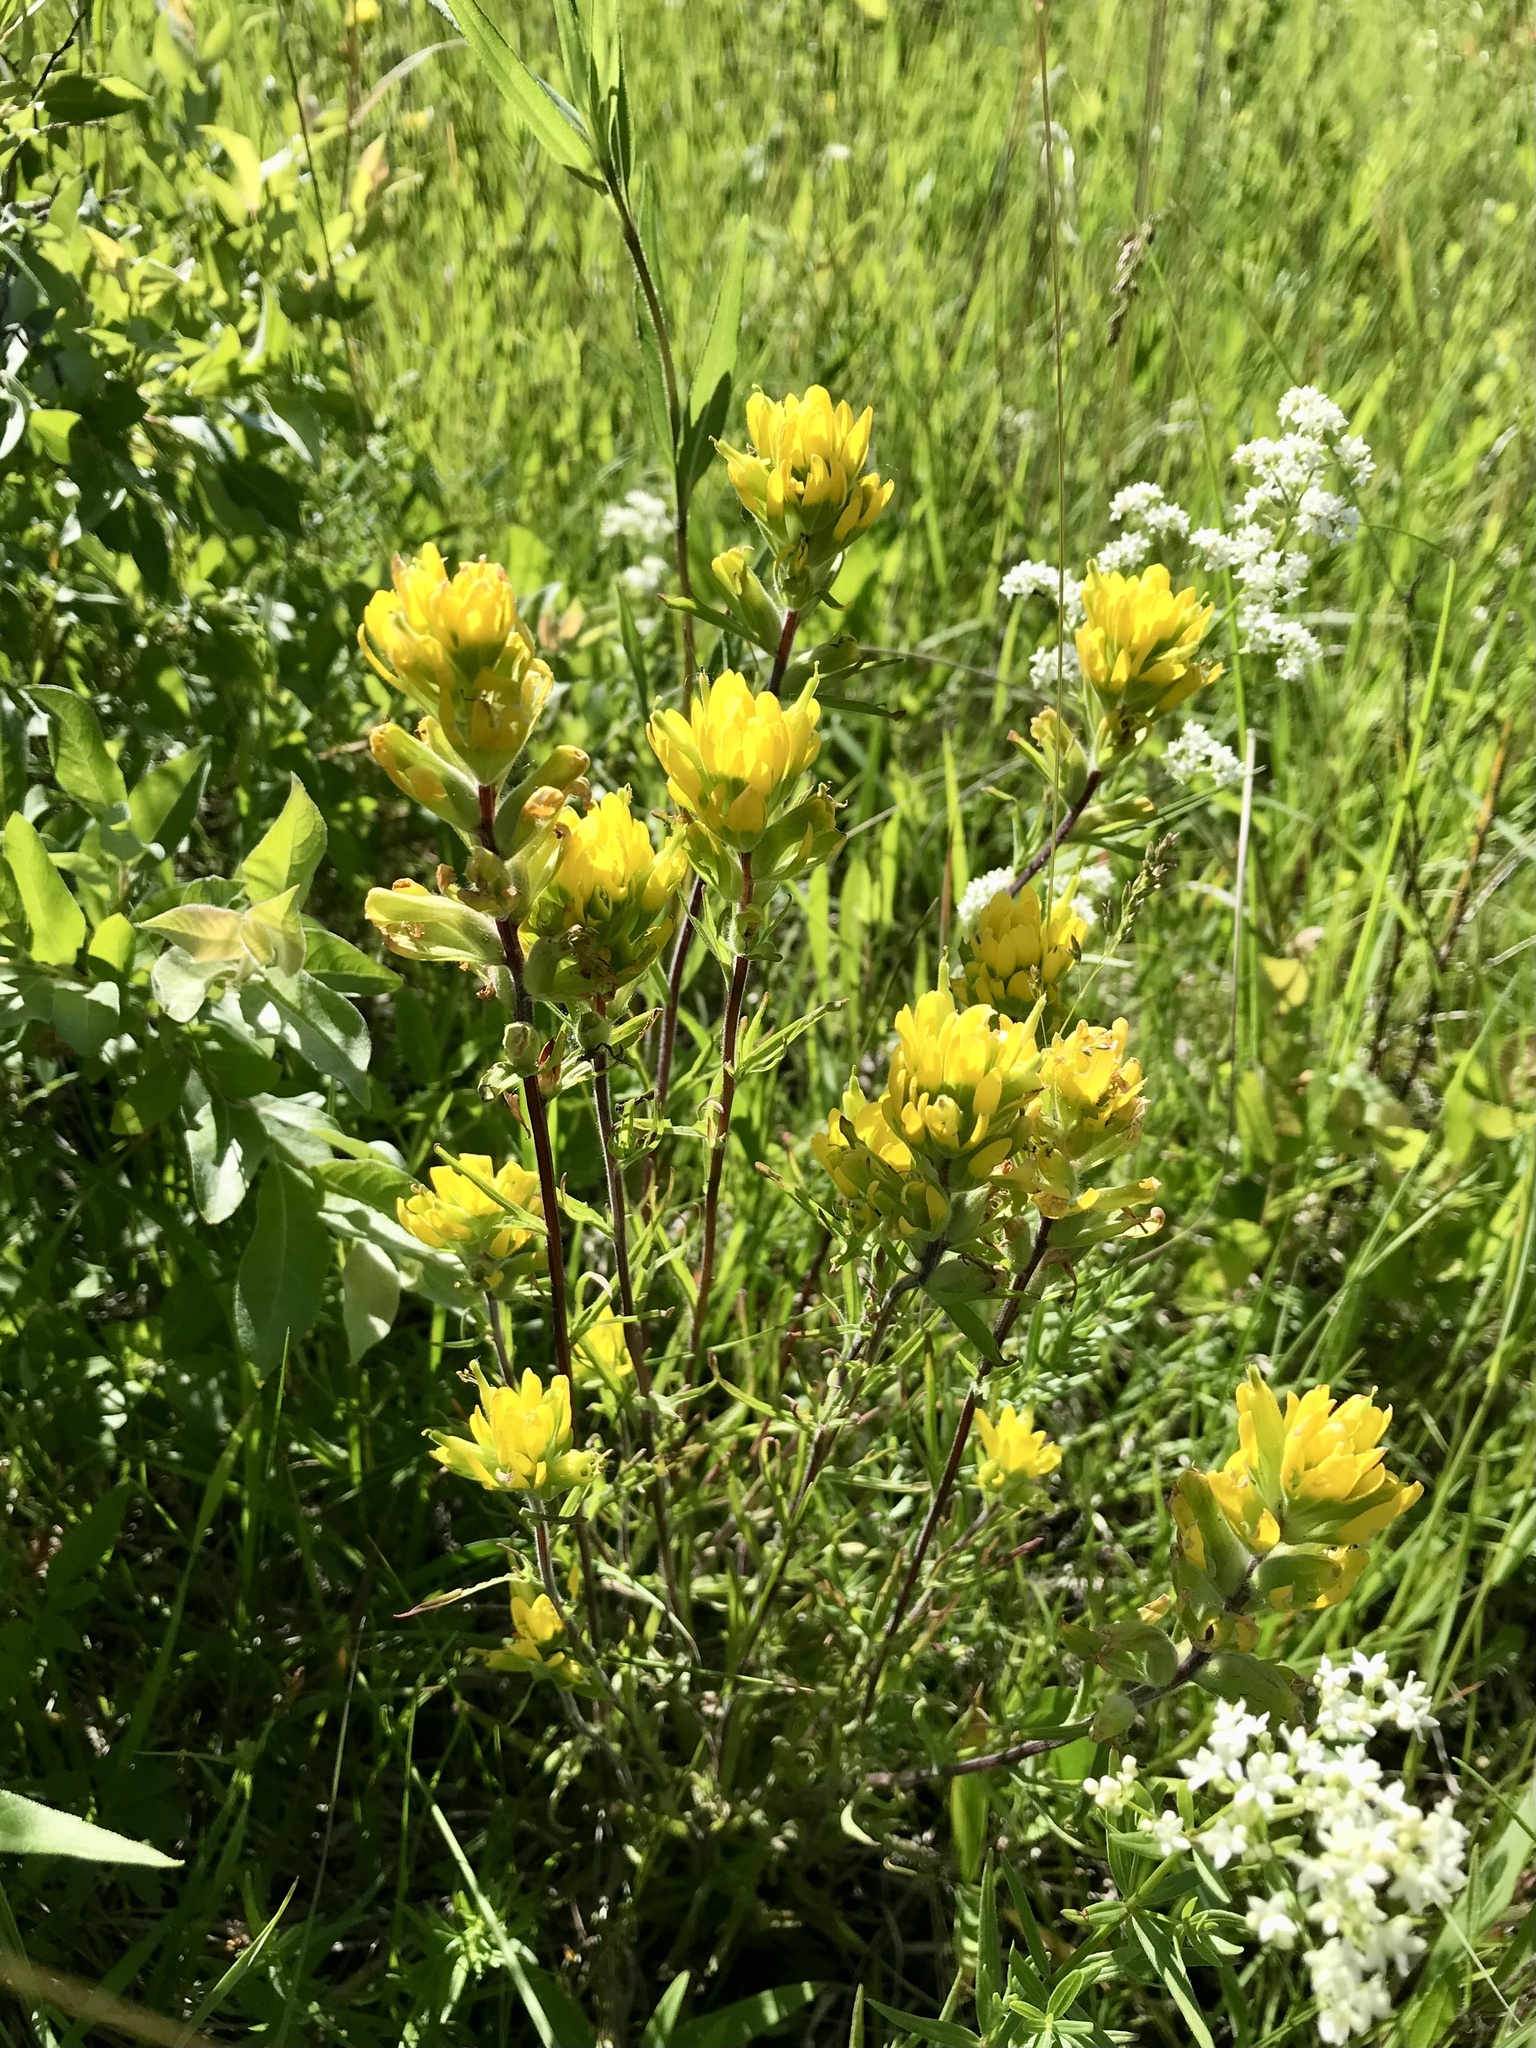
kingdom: Plantae
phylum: Tracheophyta
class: Magnoliopsida
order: Lamiales
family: Orobanchaceae
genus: Castilleja
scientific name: Castilleja coccinea
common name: Scarlet paintbrush
